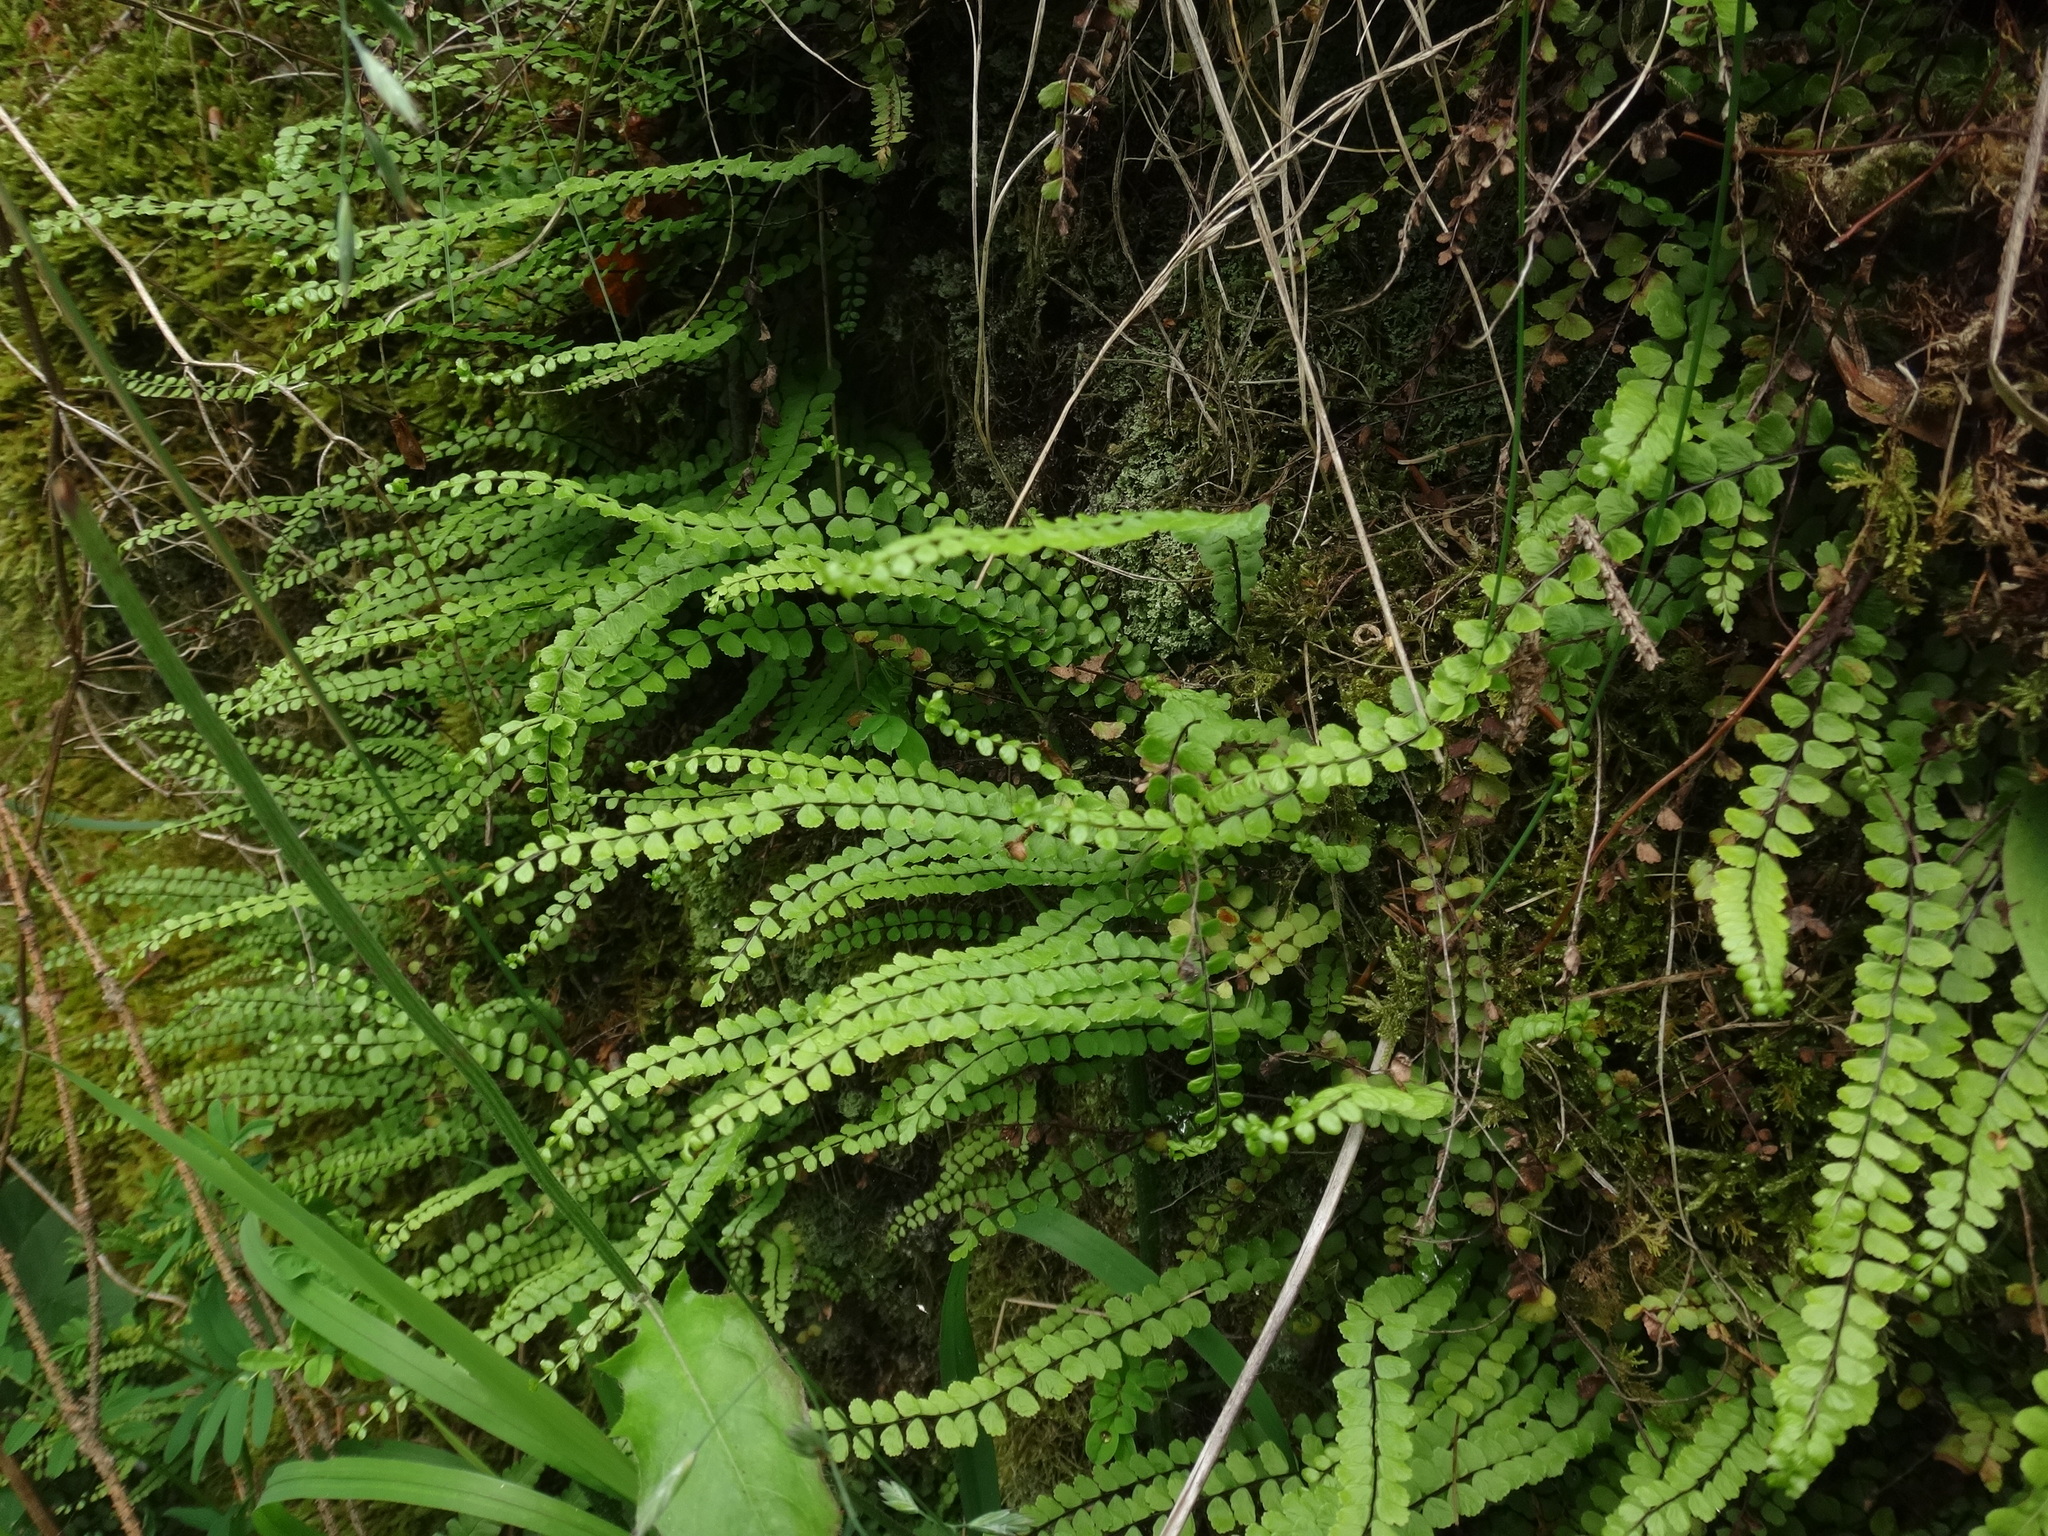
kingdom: Plantae
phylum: Tracheophyta
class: Polypodiopsida
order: Polypodiales
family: Aspleniaceae
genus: Asplenium
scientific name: Asplenium trichomanes
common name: Maidenhair spleenwort
